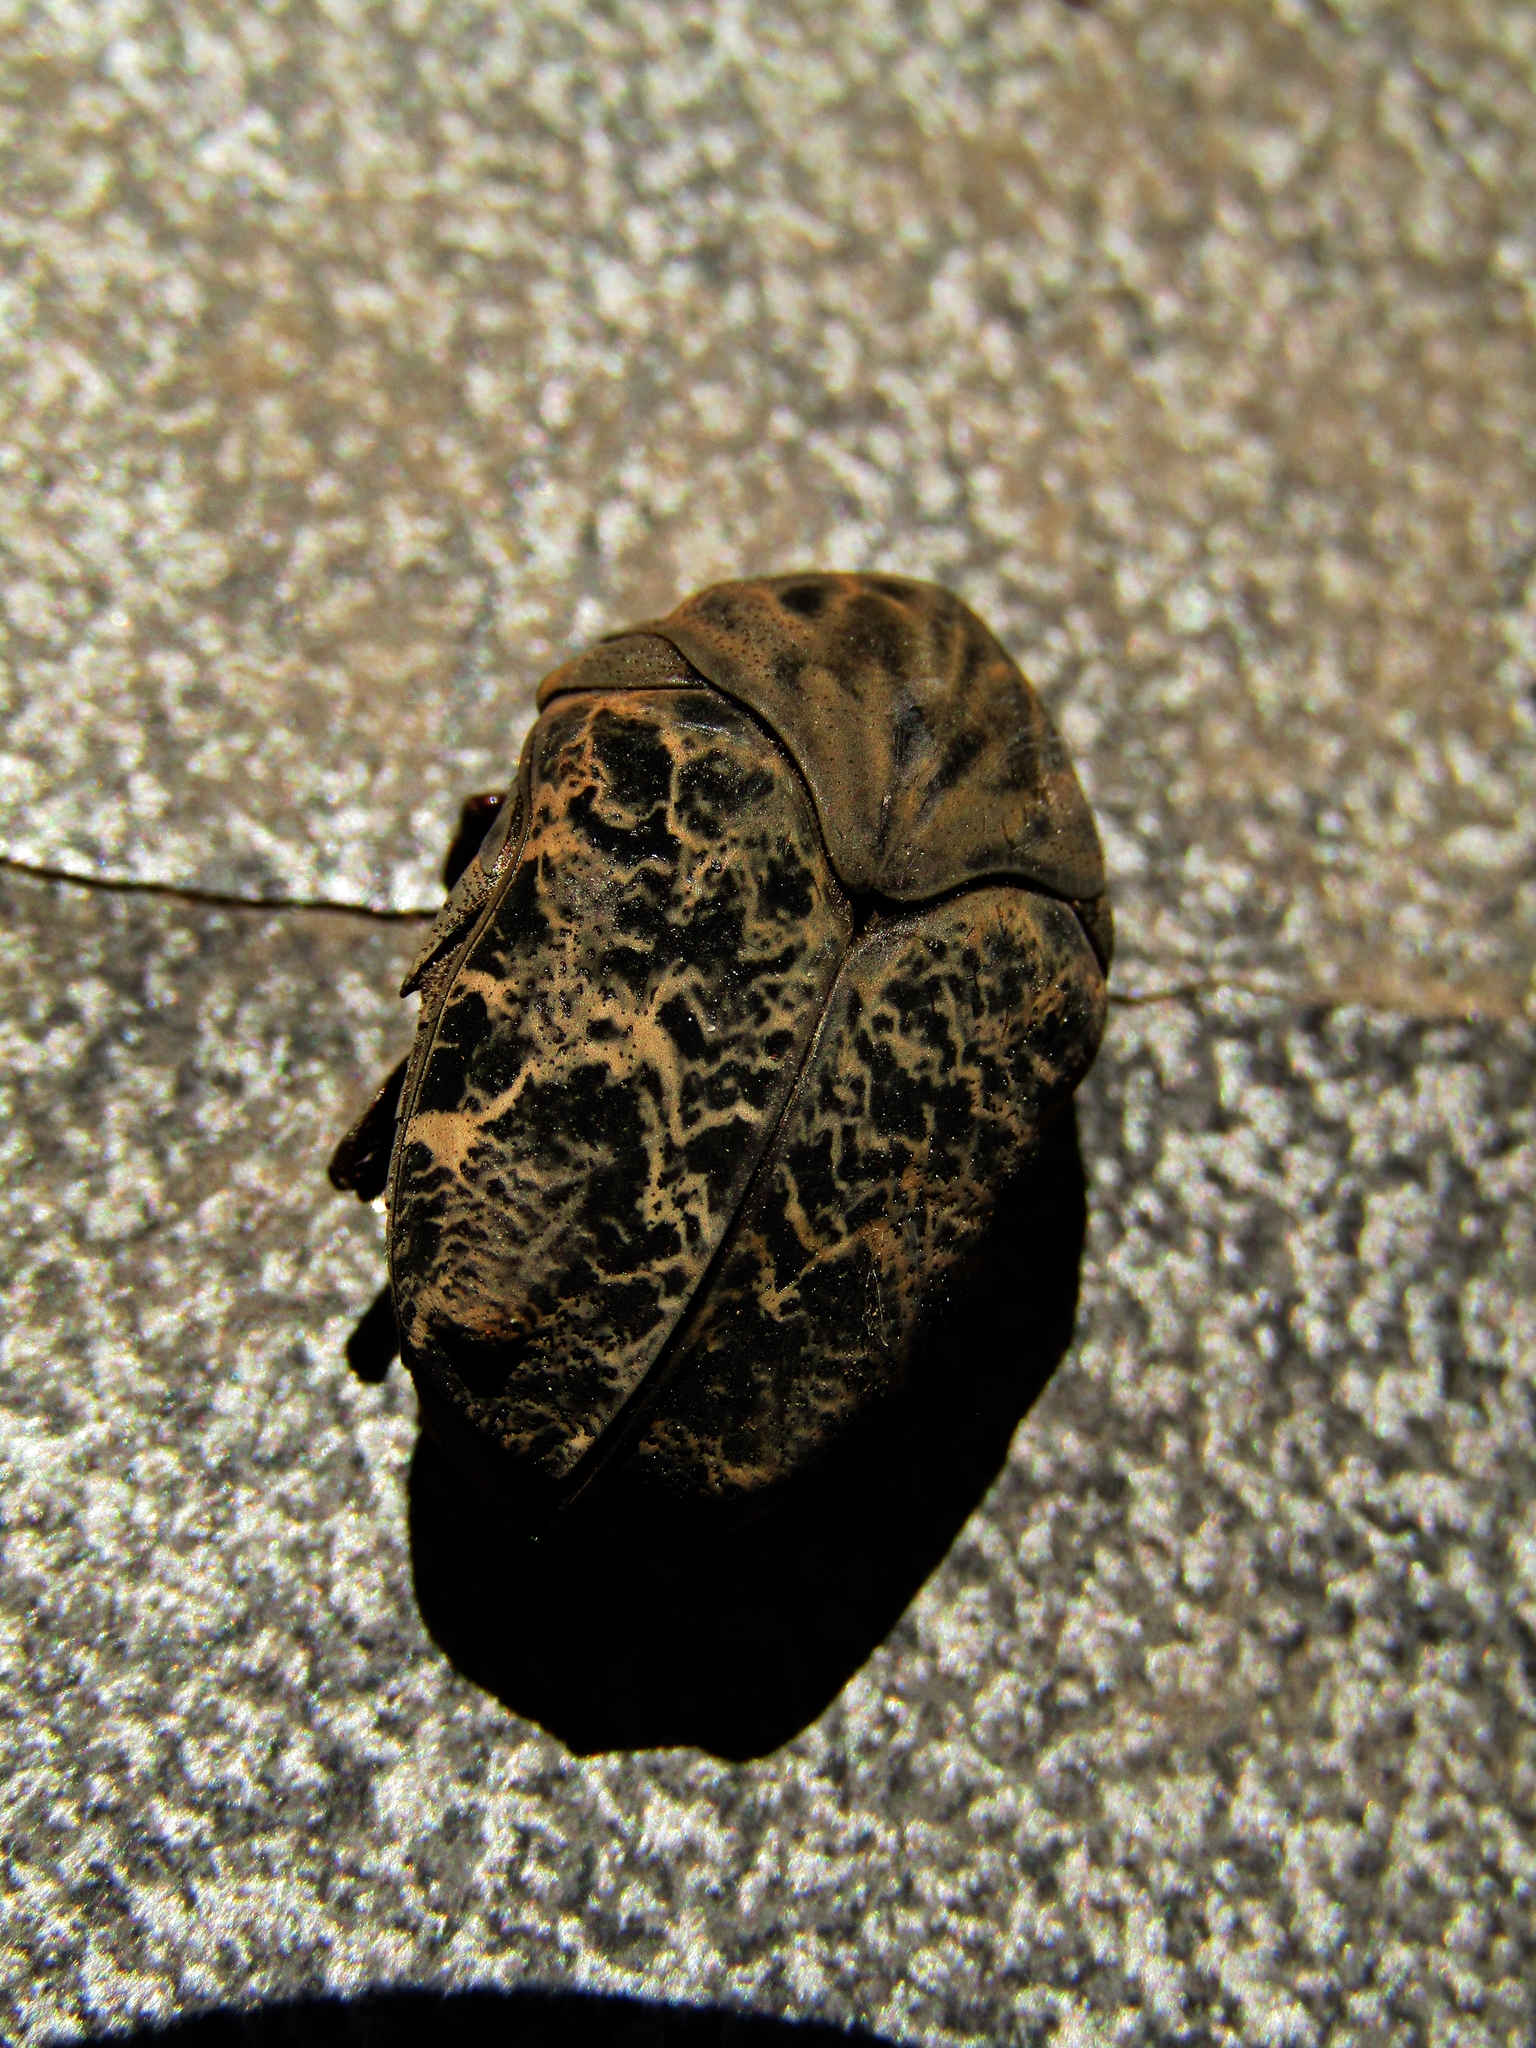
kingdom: Animalia
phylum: Arthropoda
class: Insecta
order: Coleoptera
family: Scarabaeidae
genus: Gymnetis
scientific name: Gymnetis chalcipes
